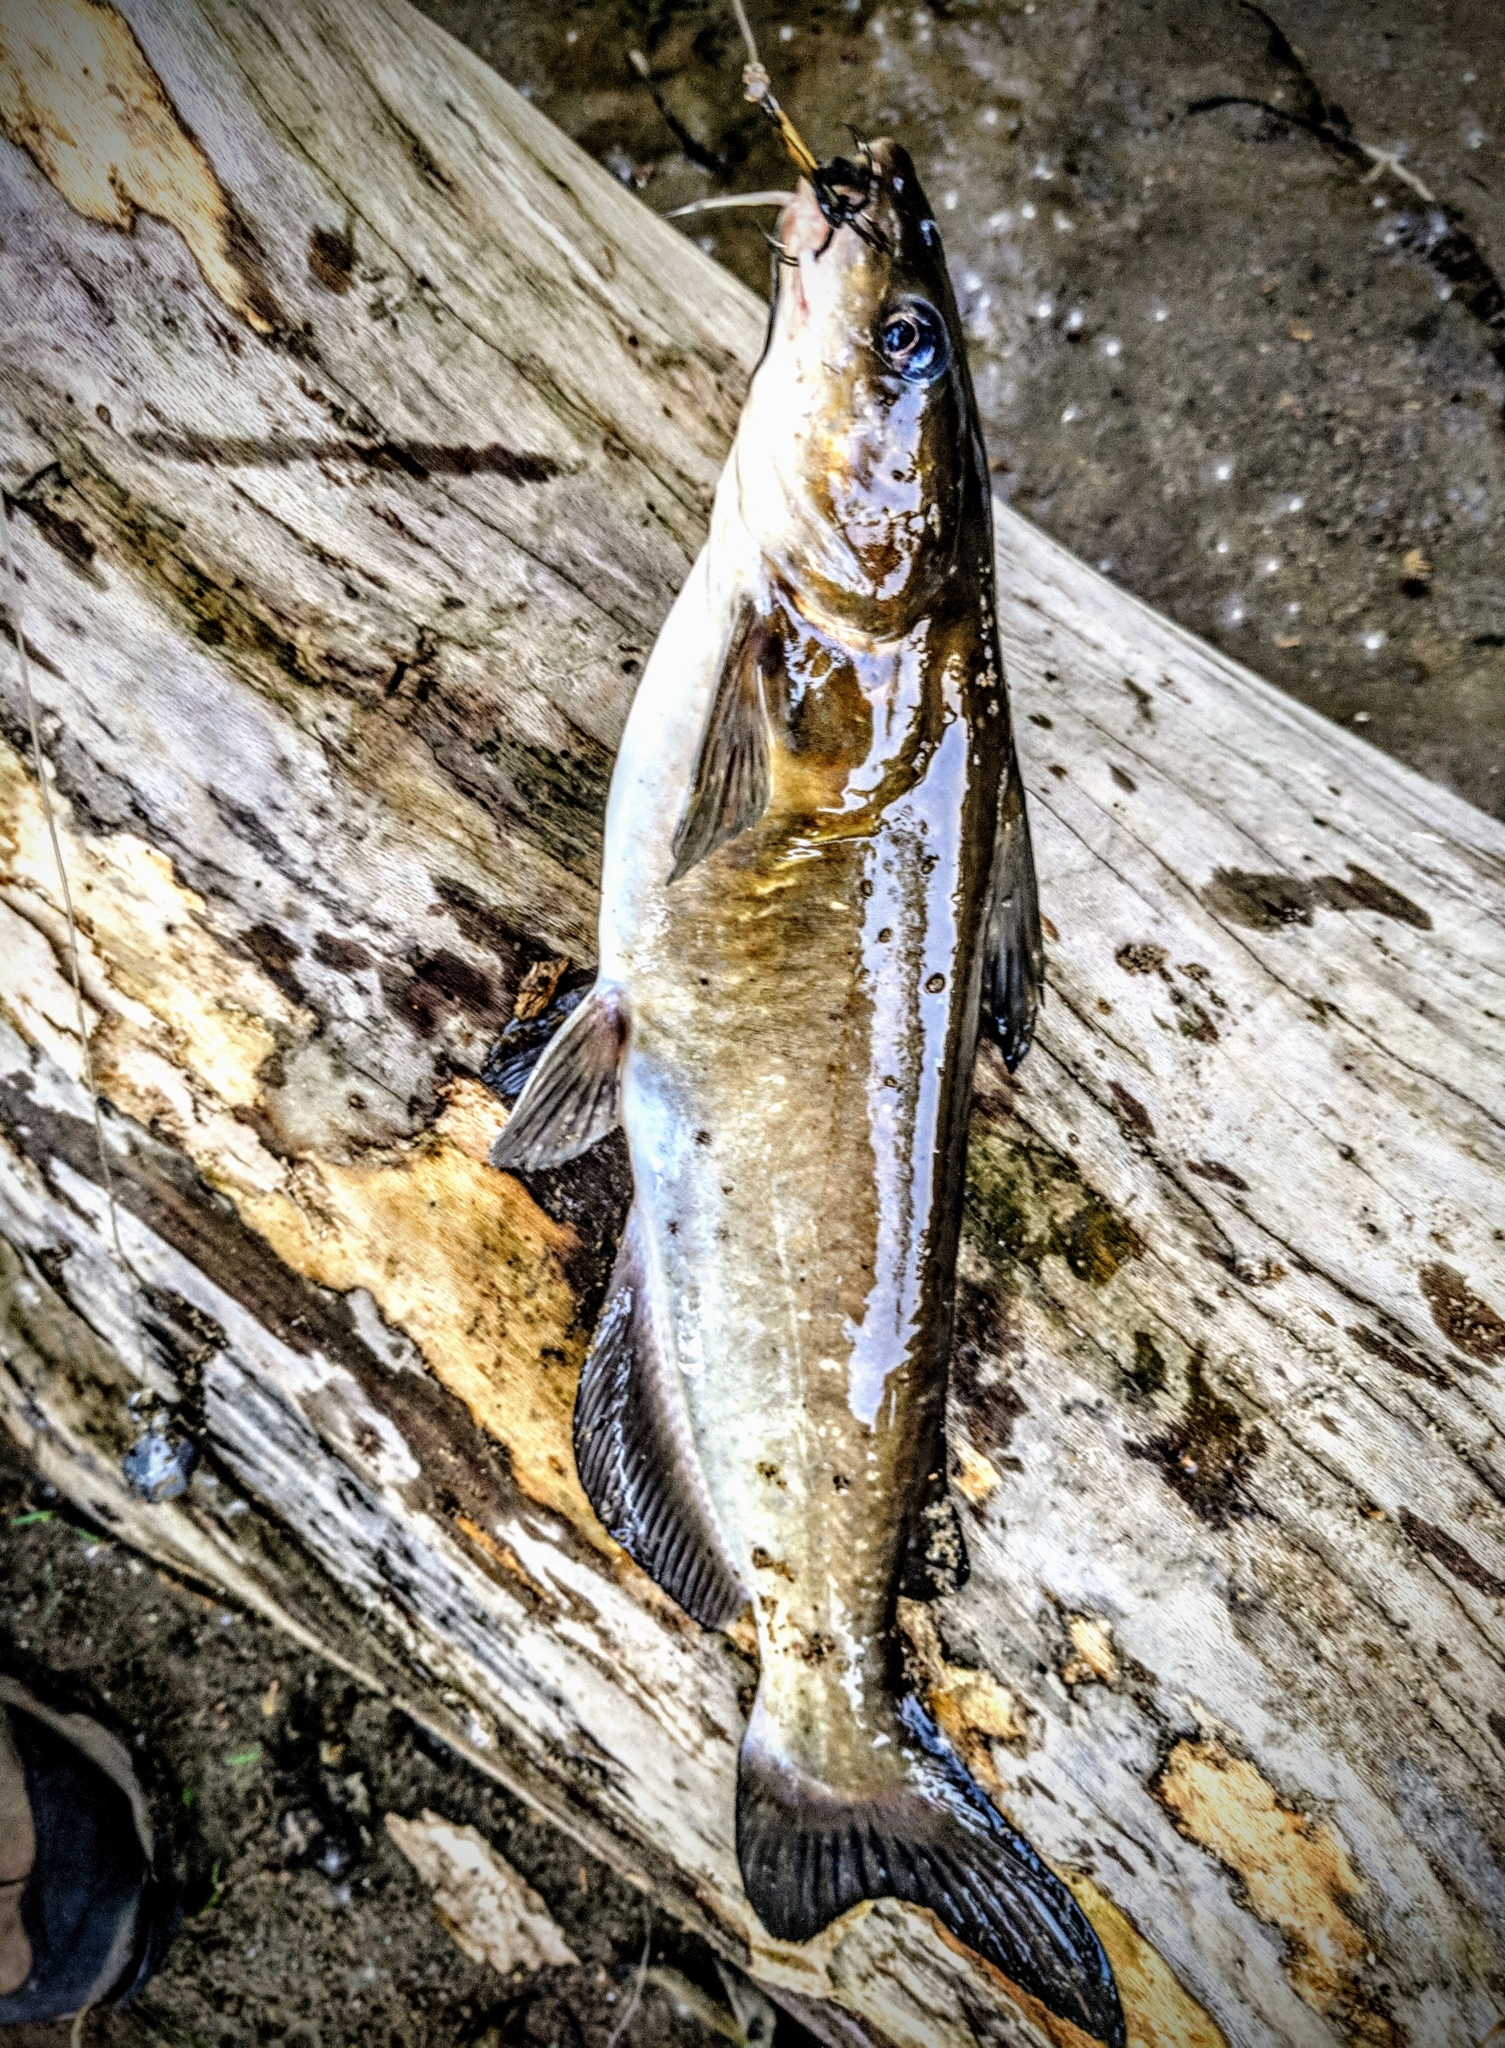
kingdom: Animalia
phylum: Chordata
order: Siluriformes
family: Ictaluridae
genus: Ictalurus
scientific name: Ictalurus punctatus
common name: Channel catfish
